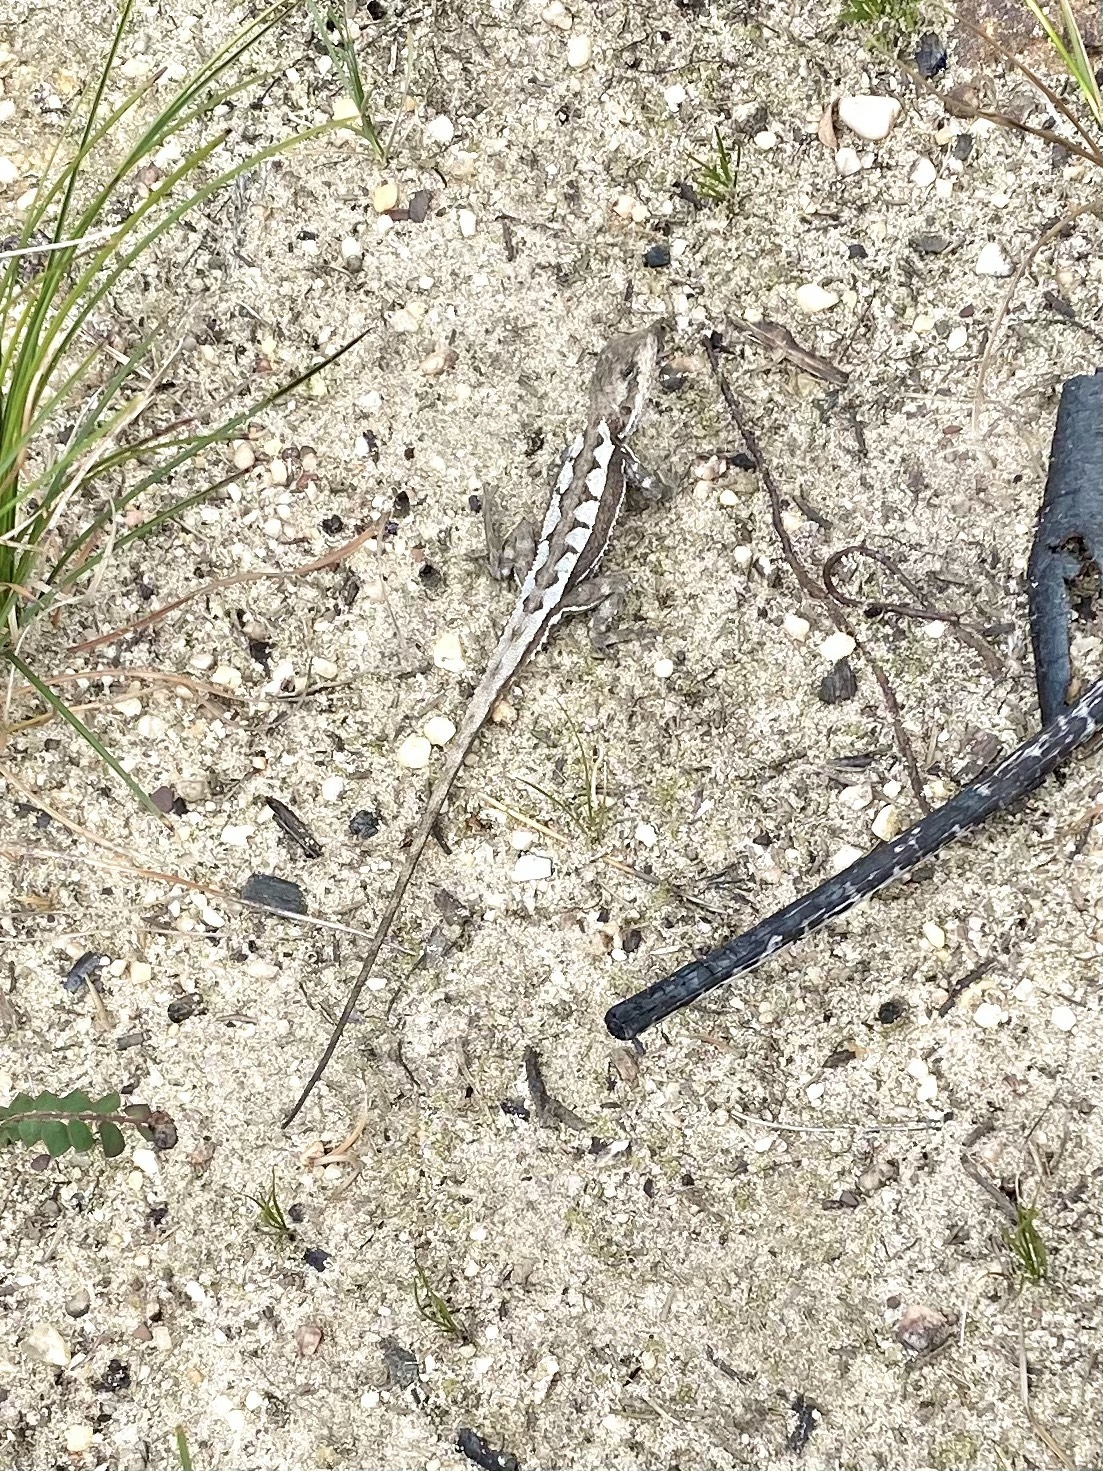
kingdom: Animalia
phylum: Chordata
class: Squamata
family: Agamidae
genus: Rankinia
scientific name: Rankinia diemensis
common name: Mountain dragon
